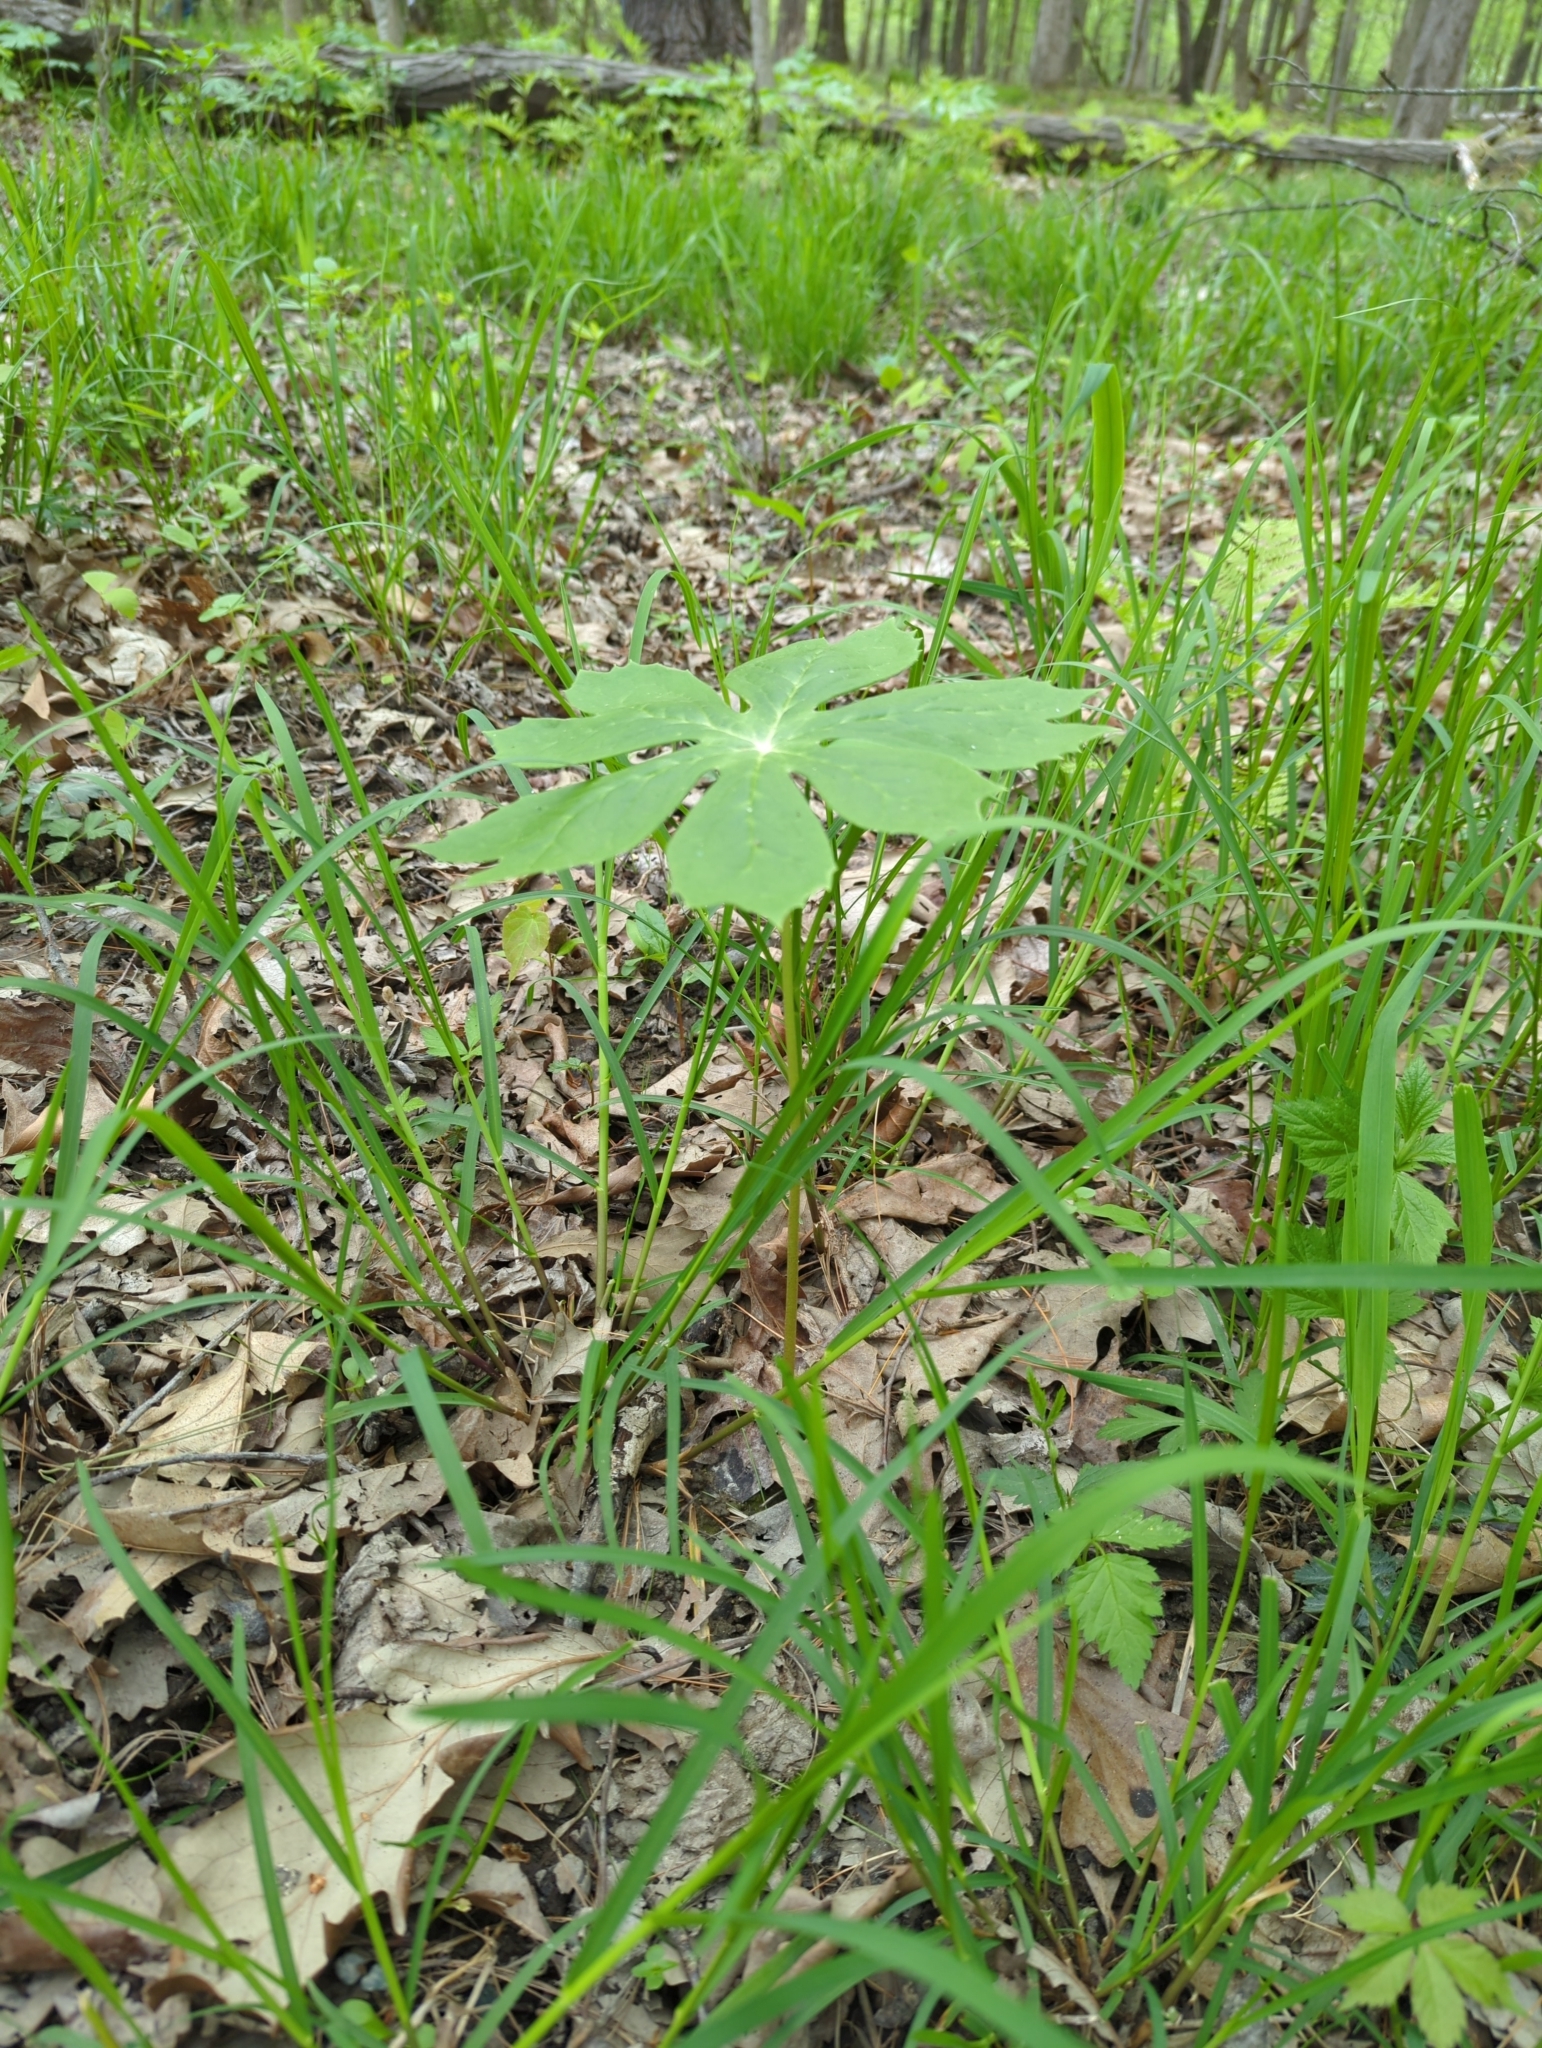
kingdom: Plantae
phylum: Tracheophyta
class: Magnoliopsida
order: Ranunculales
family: Berberidaceae
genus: Podophyllum
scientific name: Podophyllum peltatum
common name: Wild mandrake
